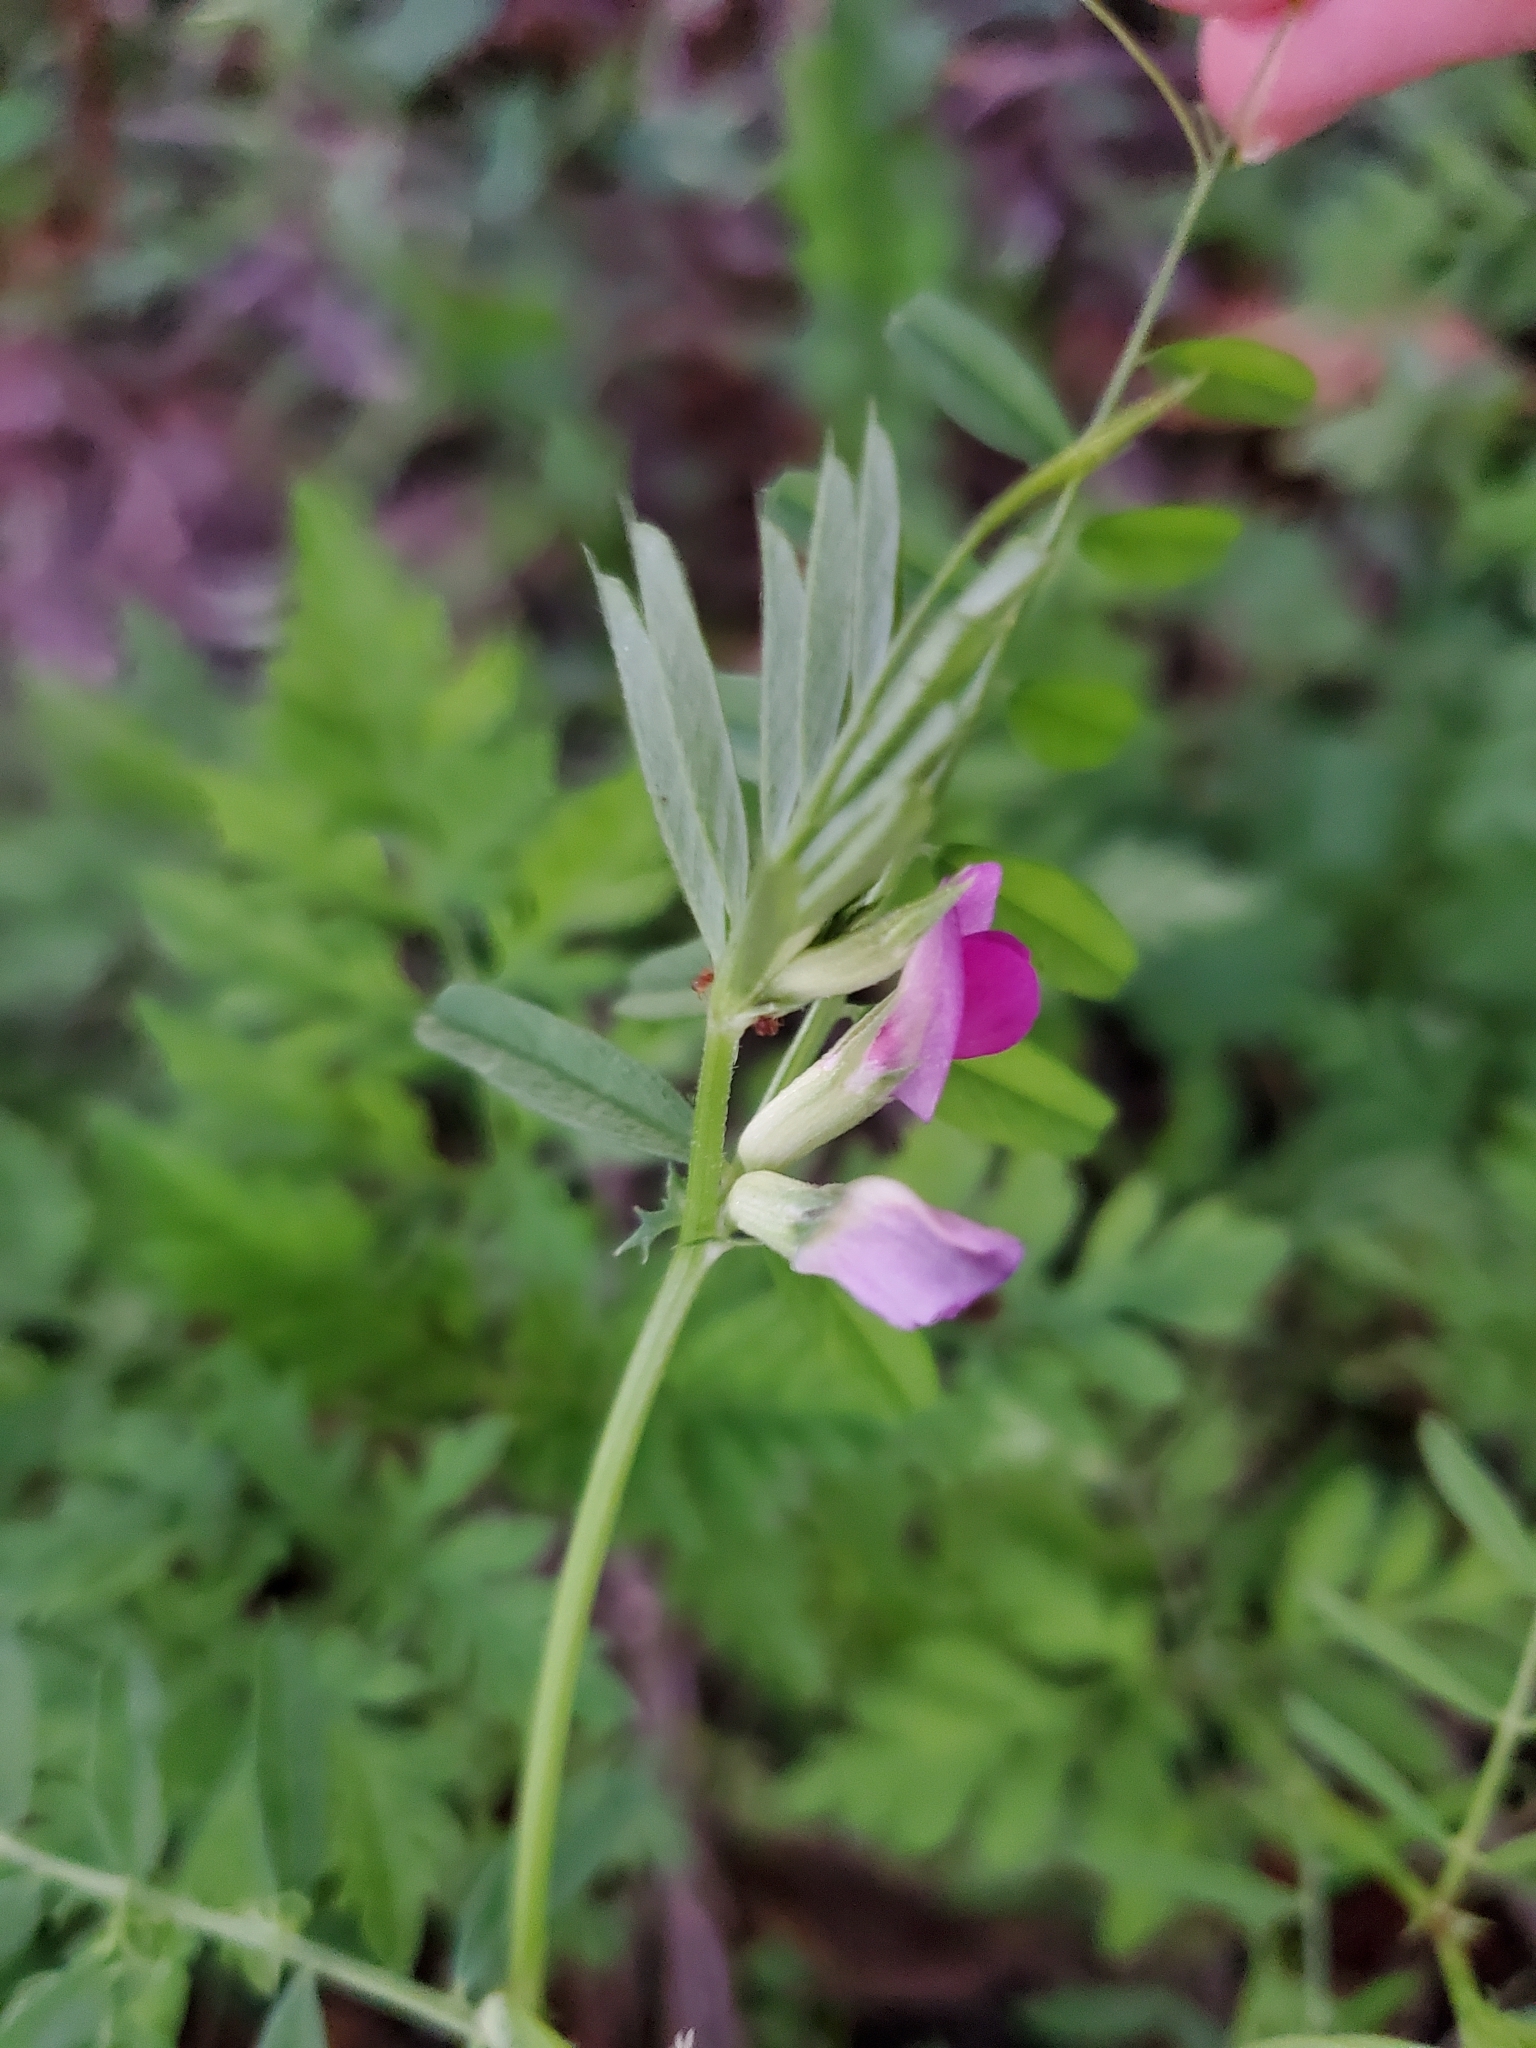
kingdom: Plantae
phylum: Tracheophyta
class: Magnoliopsida
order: Fabales
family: Fabaceae
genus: Vicia
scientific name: Vicia sativa
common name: Garden vetch
